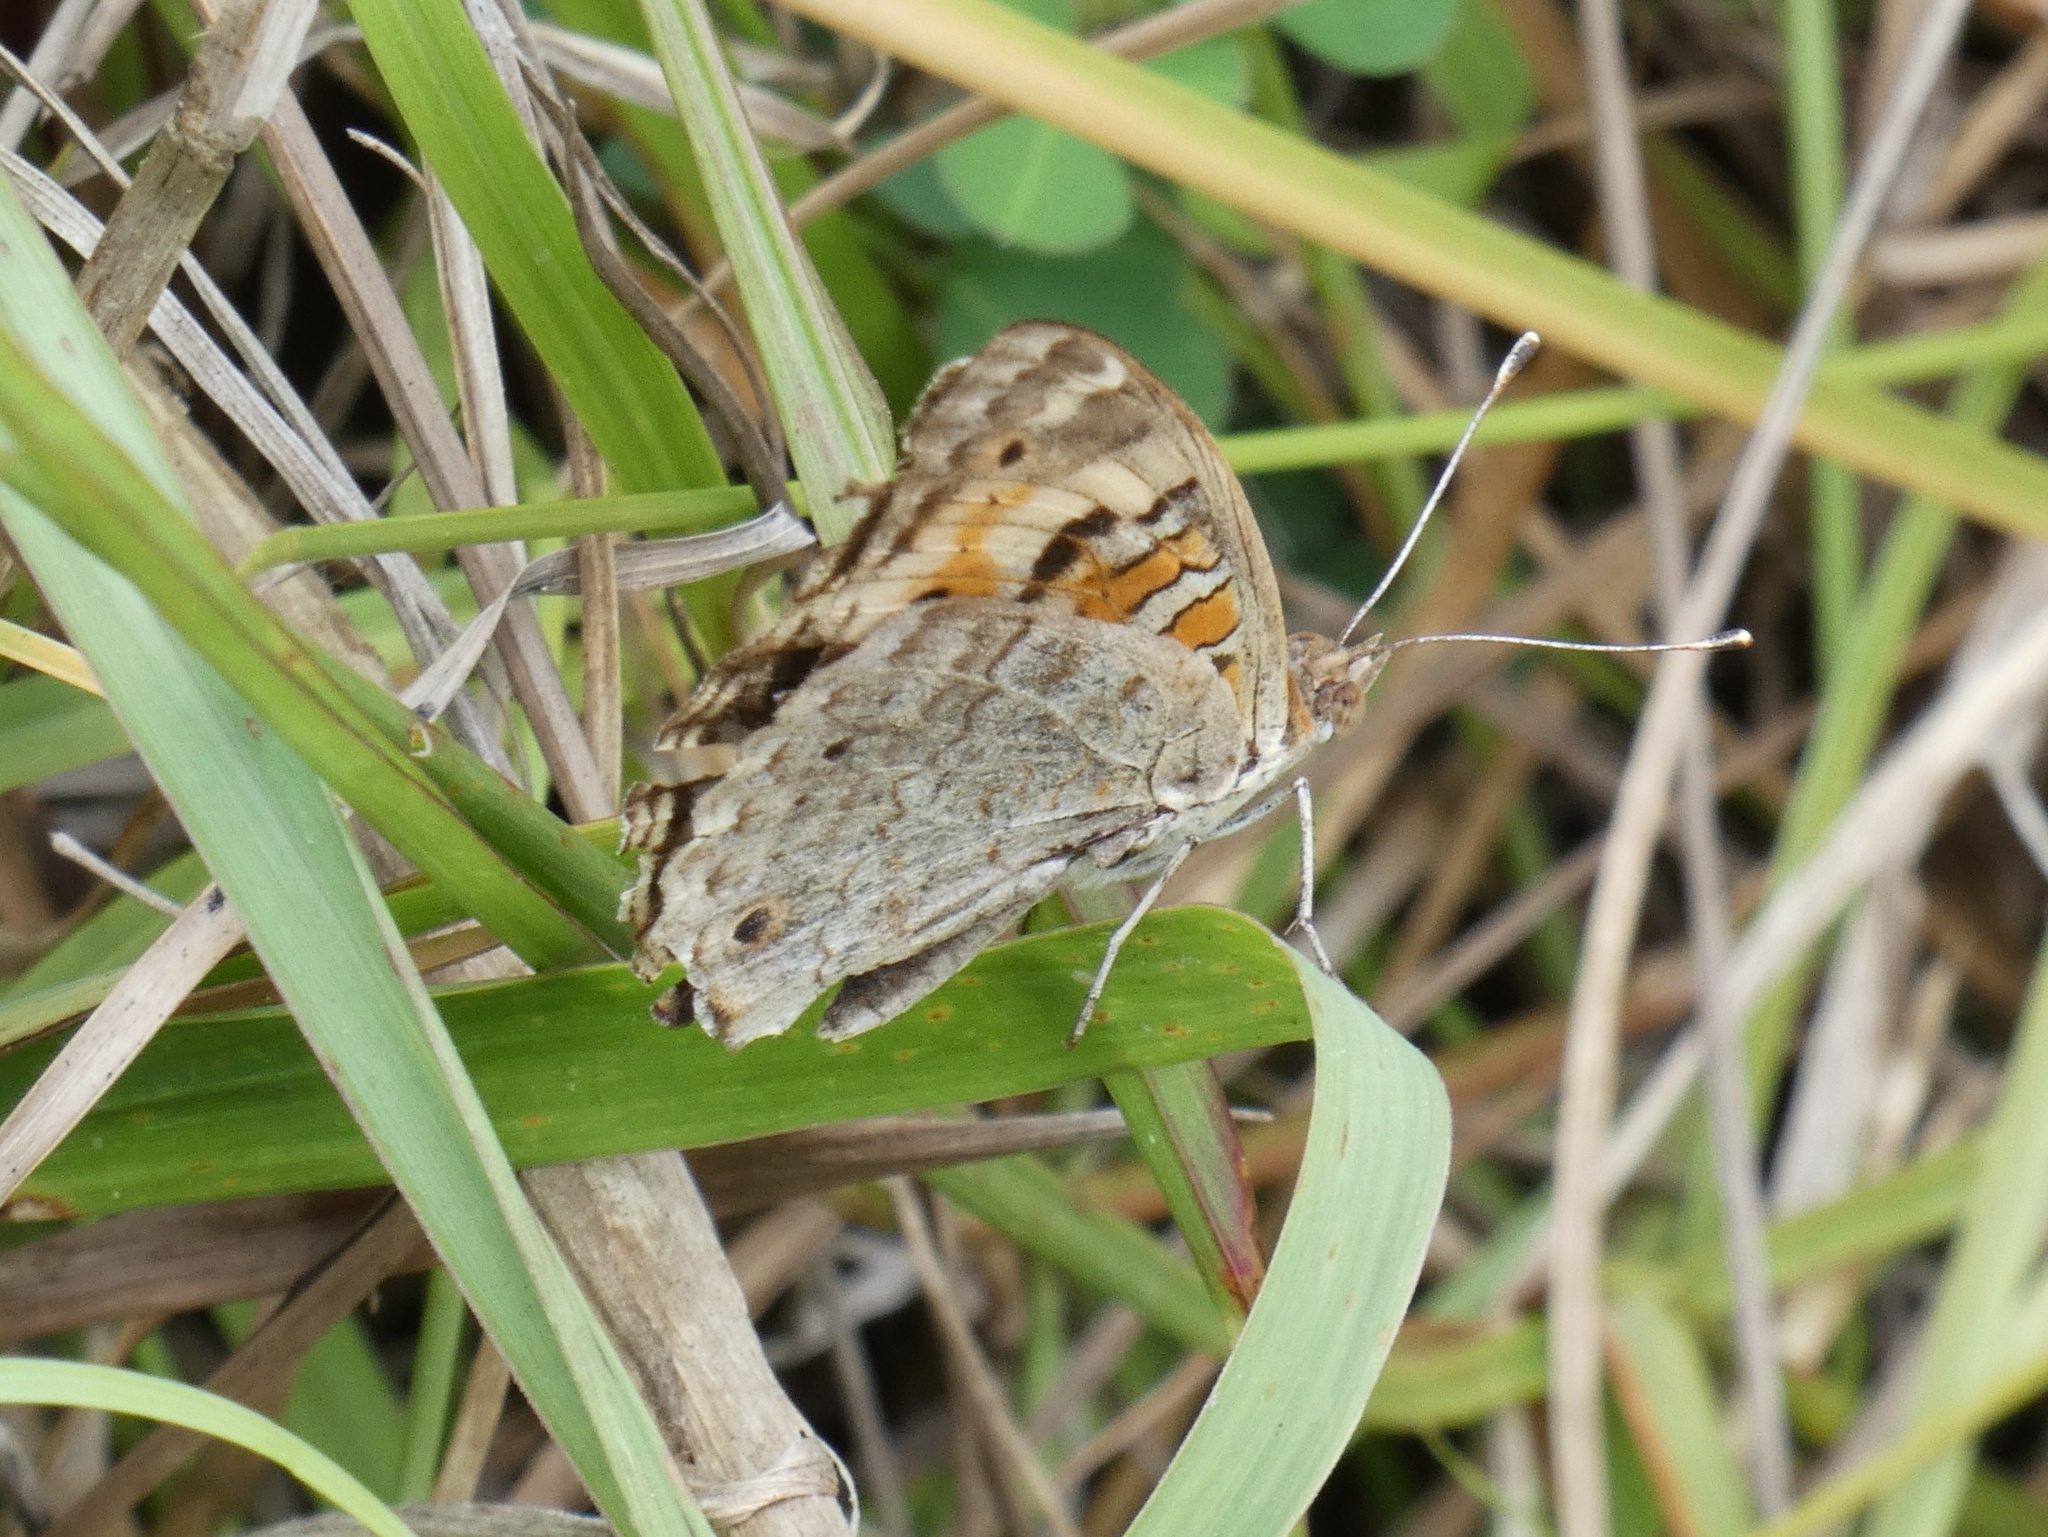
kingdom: Animalia
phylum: Arthropoda
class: Insecta
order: Lepidoptera
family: Nymphalidae
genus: Junonia
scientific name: Junonia orithya
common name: Blue pansy
